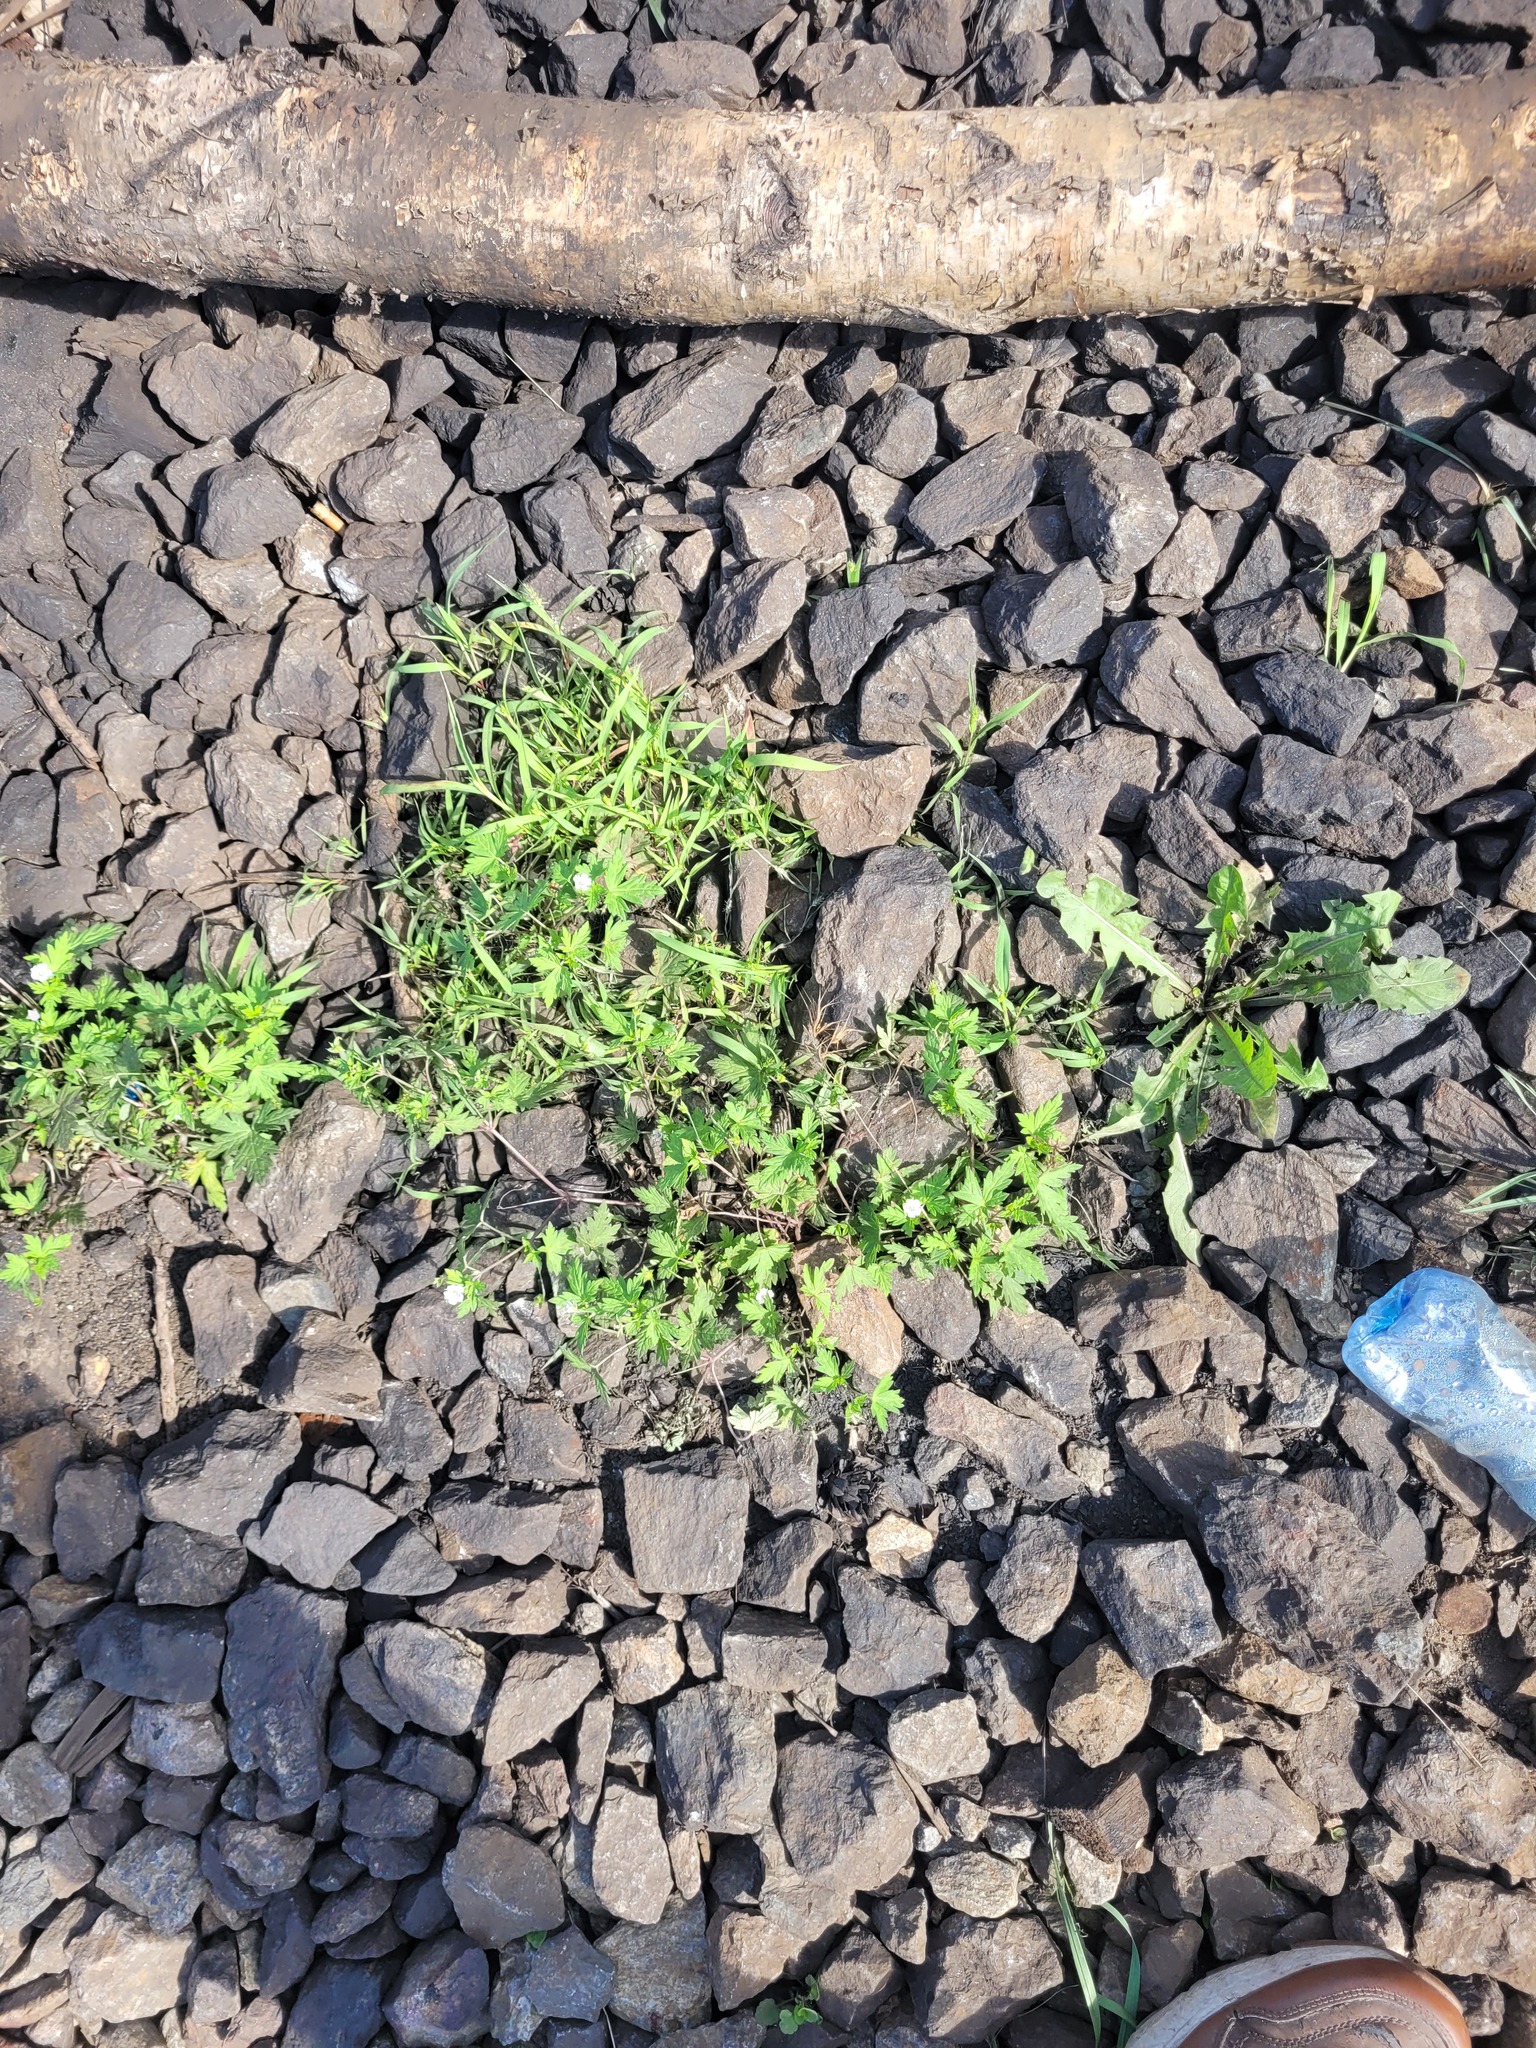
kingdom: Plantae
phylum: Tracheophyta
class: Magnoliopsida
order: Geraniales
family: Geraniaceae
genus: Geranium
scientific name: Geranium sibiricum
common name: Siberian crane's-bill
